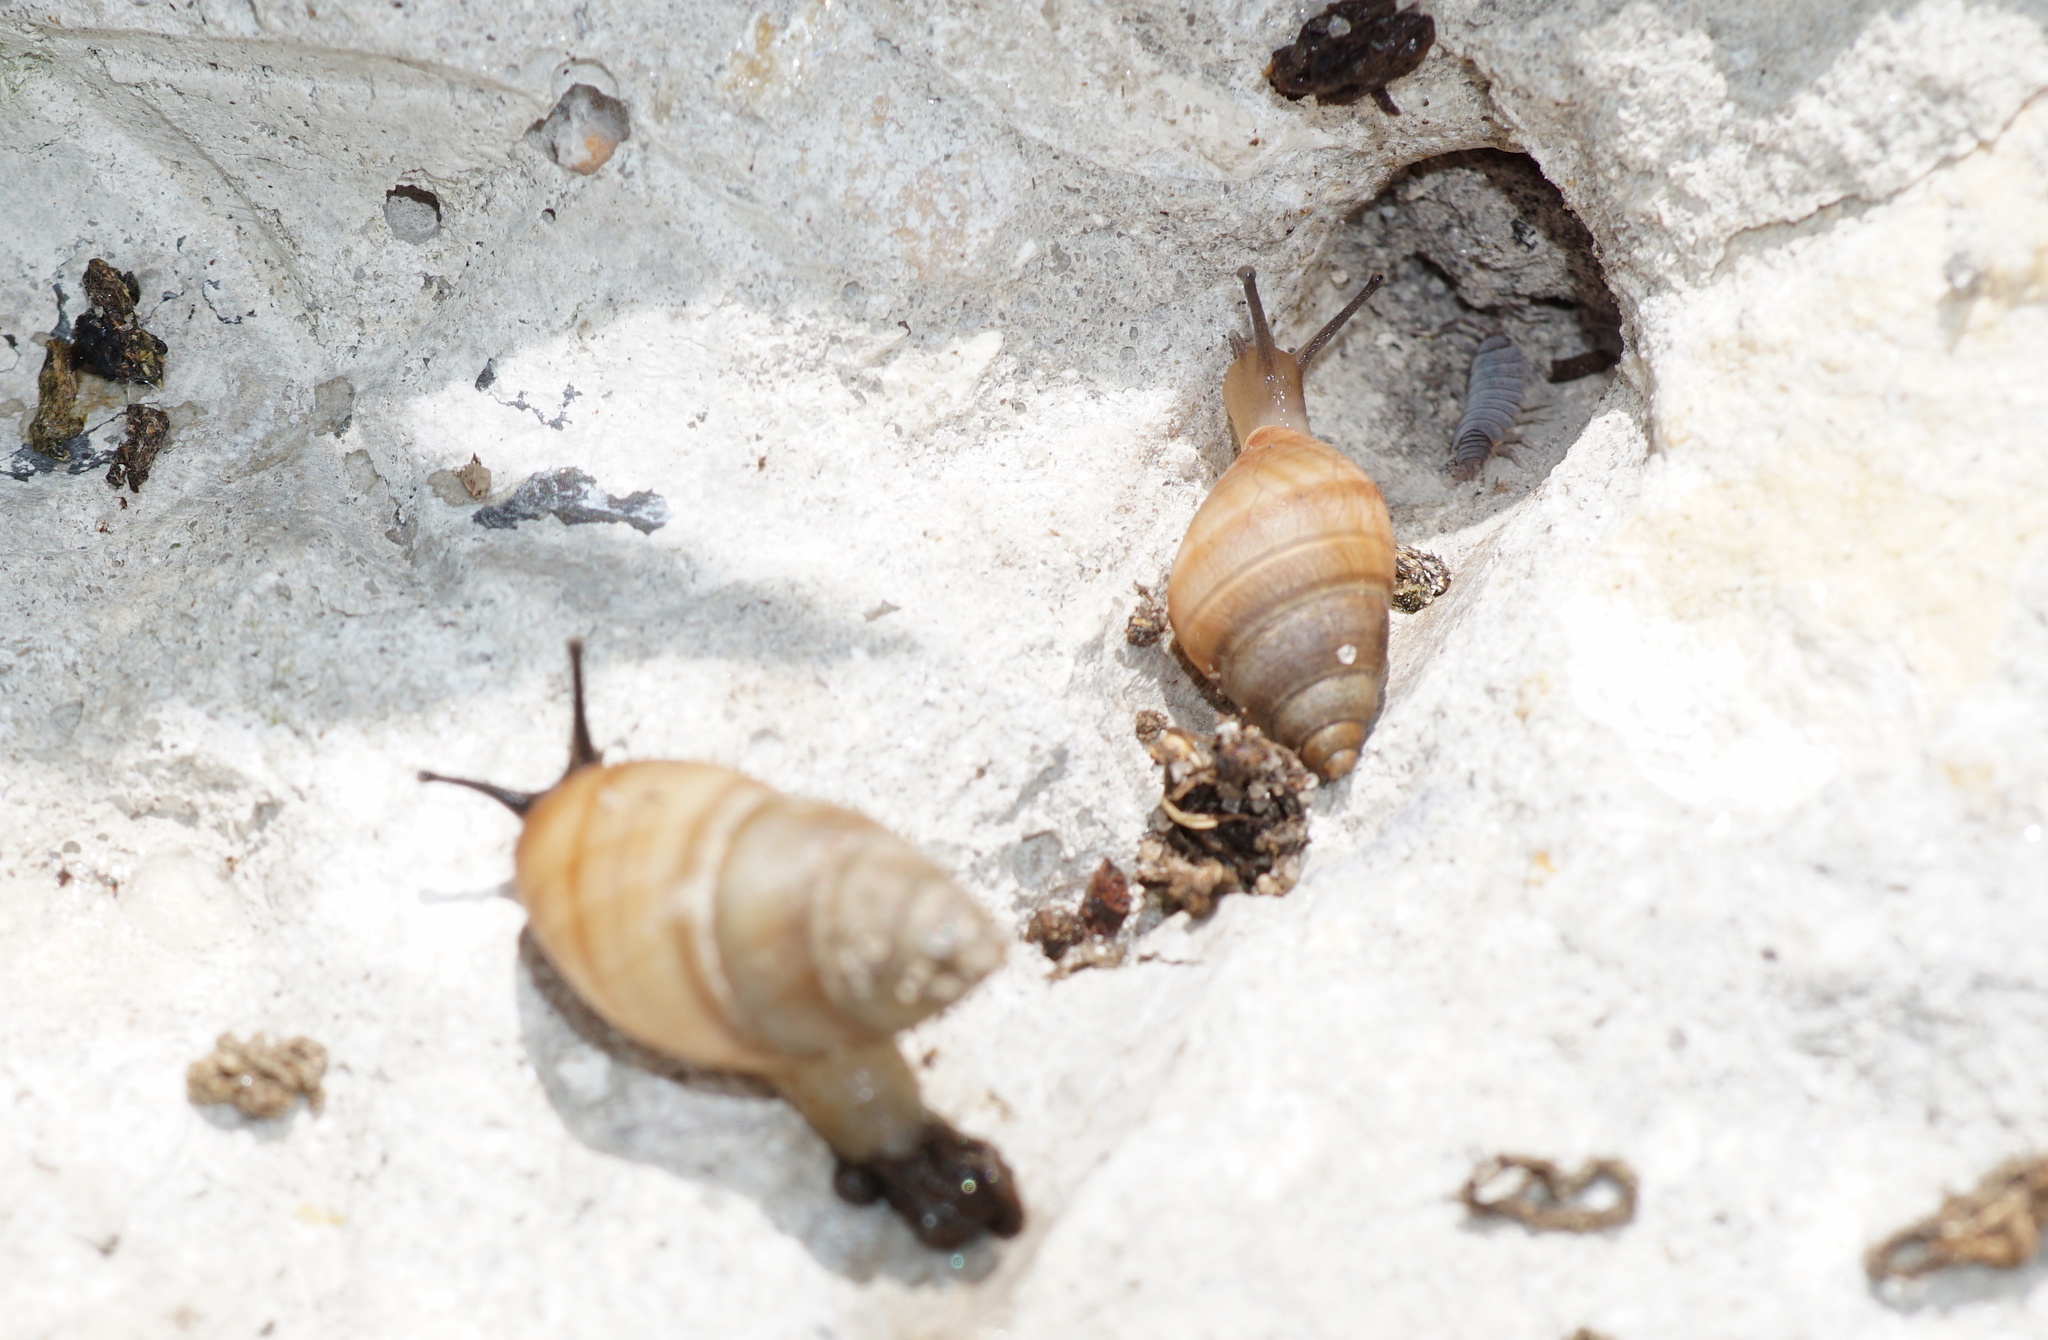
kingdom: Animalia
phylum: Mollusca
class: Gastropoda
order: Stylommatophora
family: Bulimulidae
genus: Bulimulus
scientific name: Bulimulus guadalupensis
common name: West indian bulimulus
